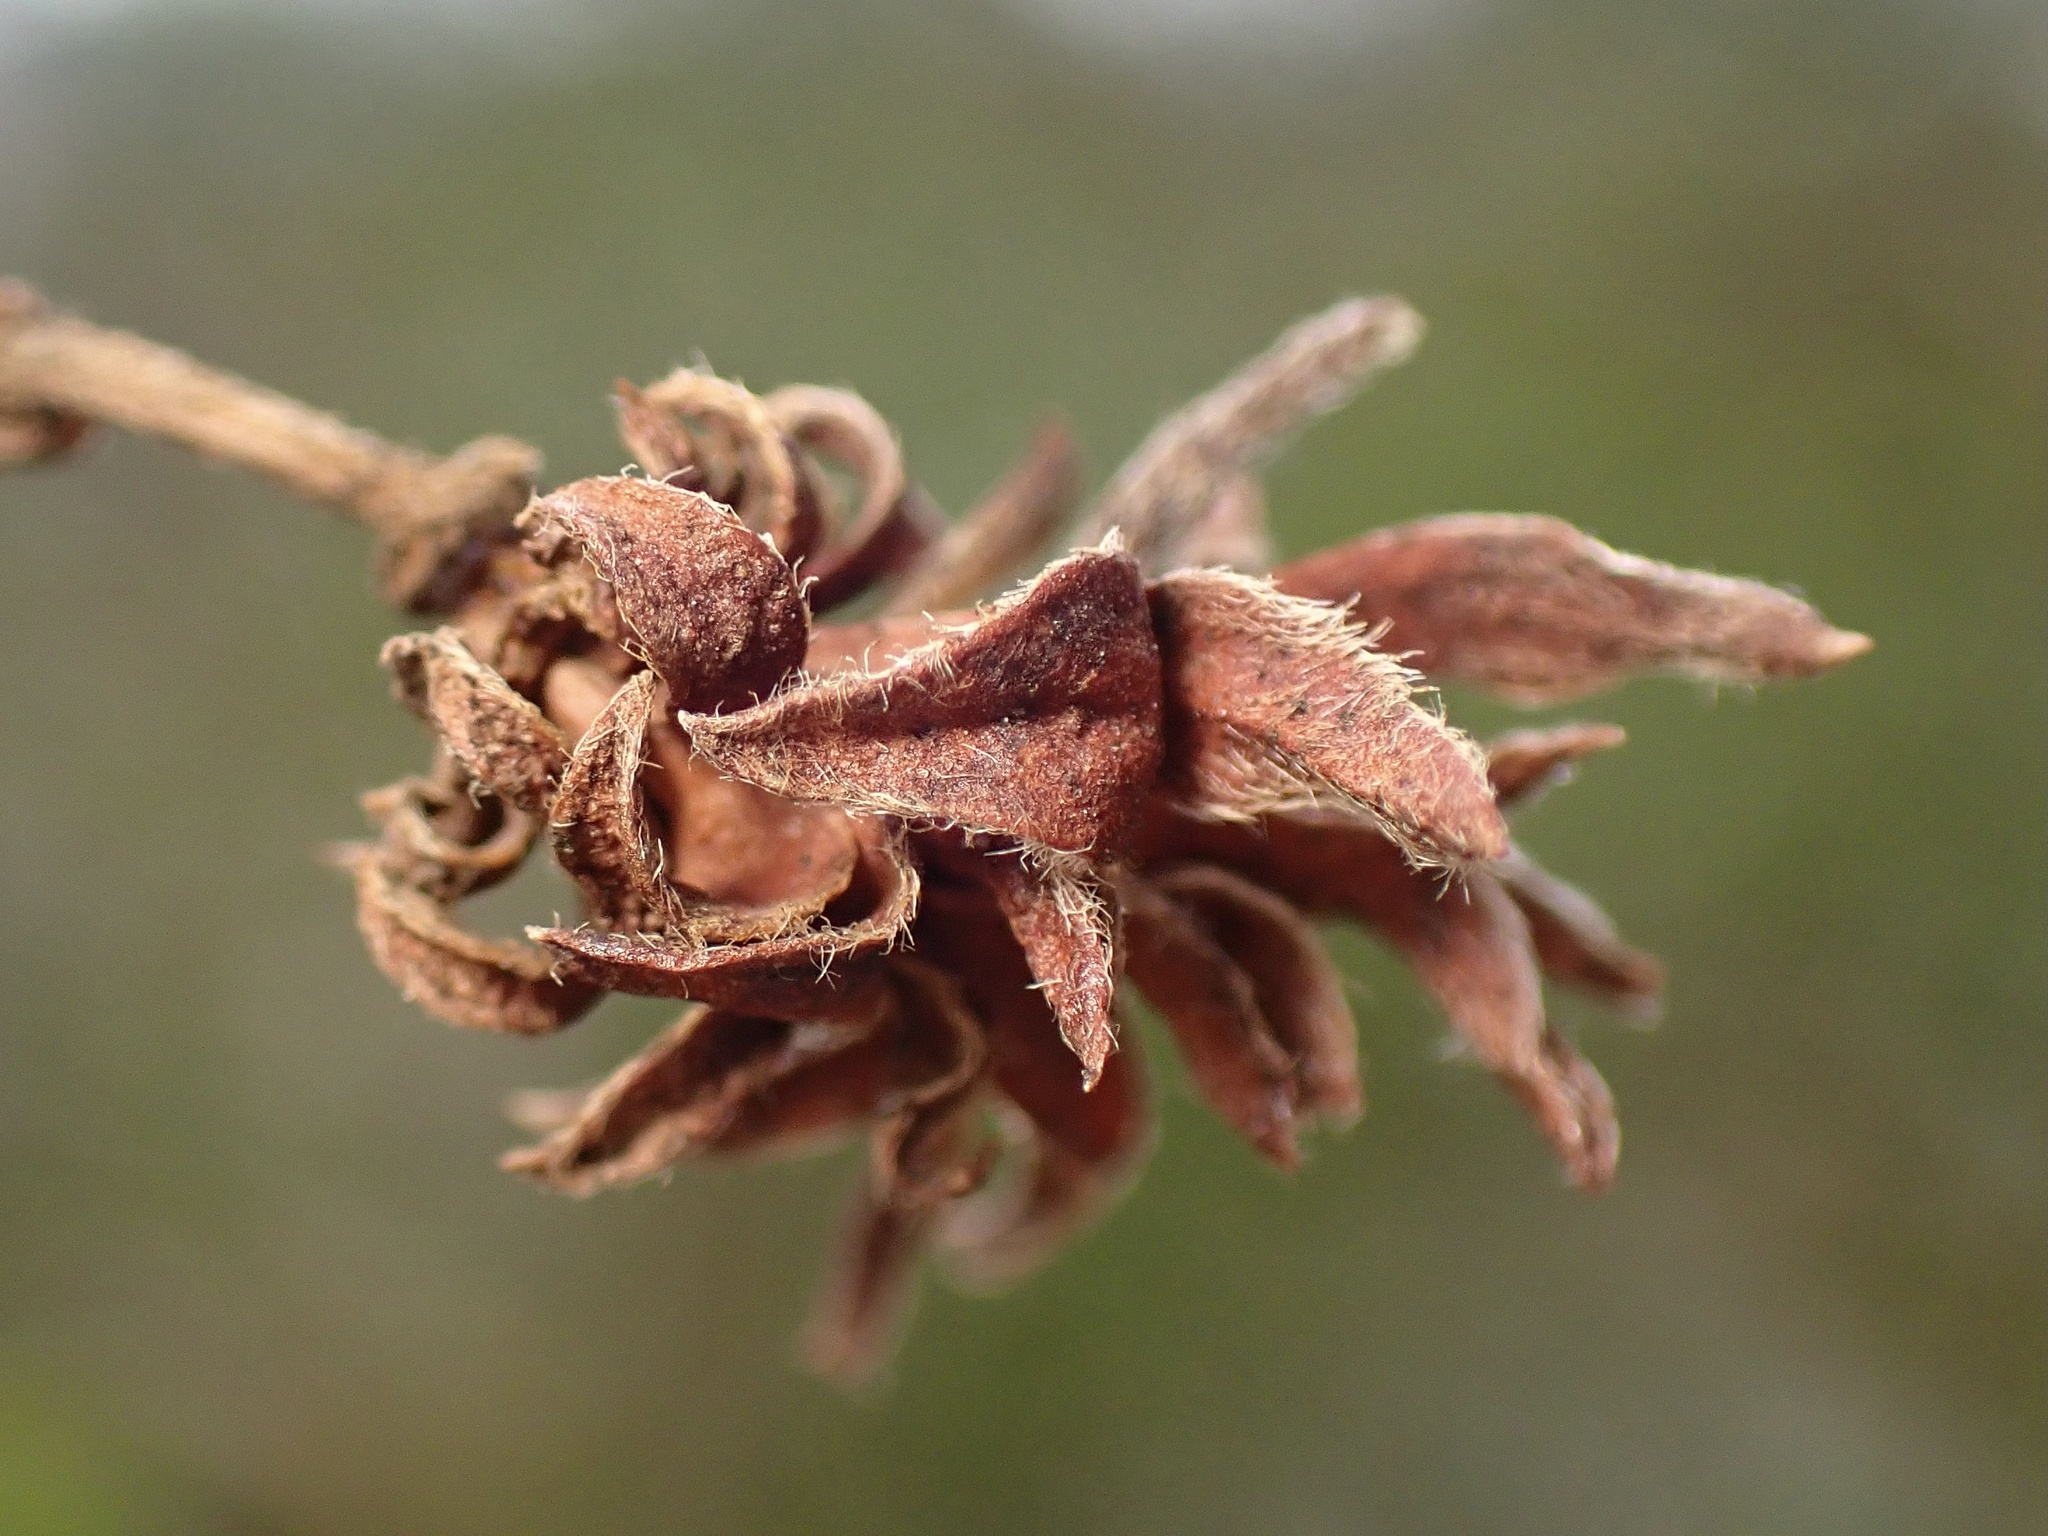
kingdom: Animalia
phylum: Arthropoda
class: Insecta
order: Diptera
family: Cecidomyiidae
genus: Asphondylia
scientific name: Asphondylia rosetta
